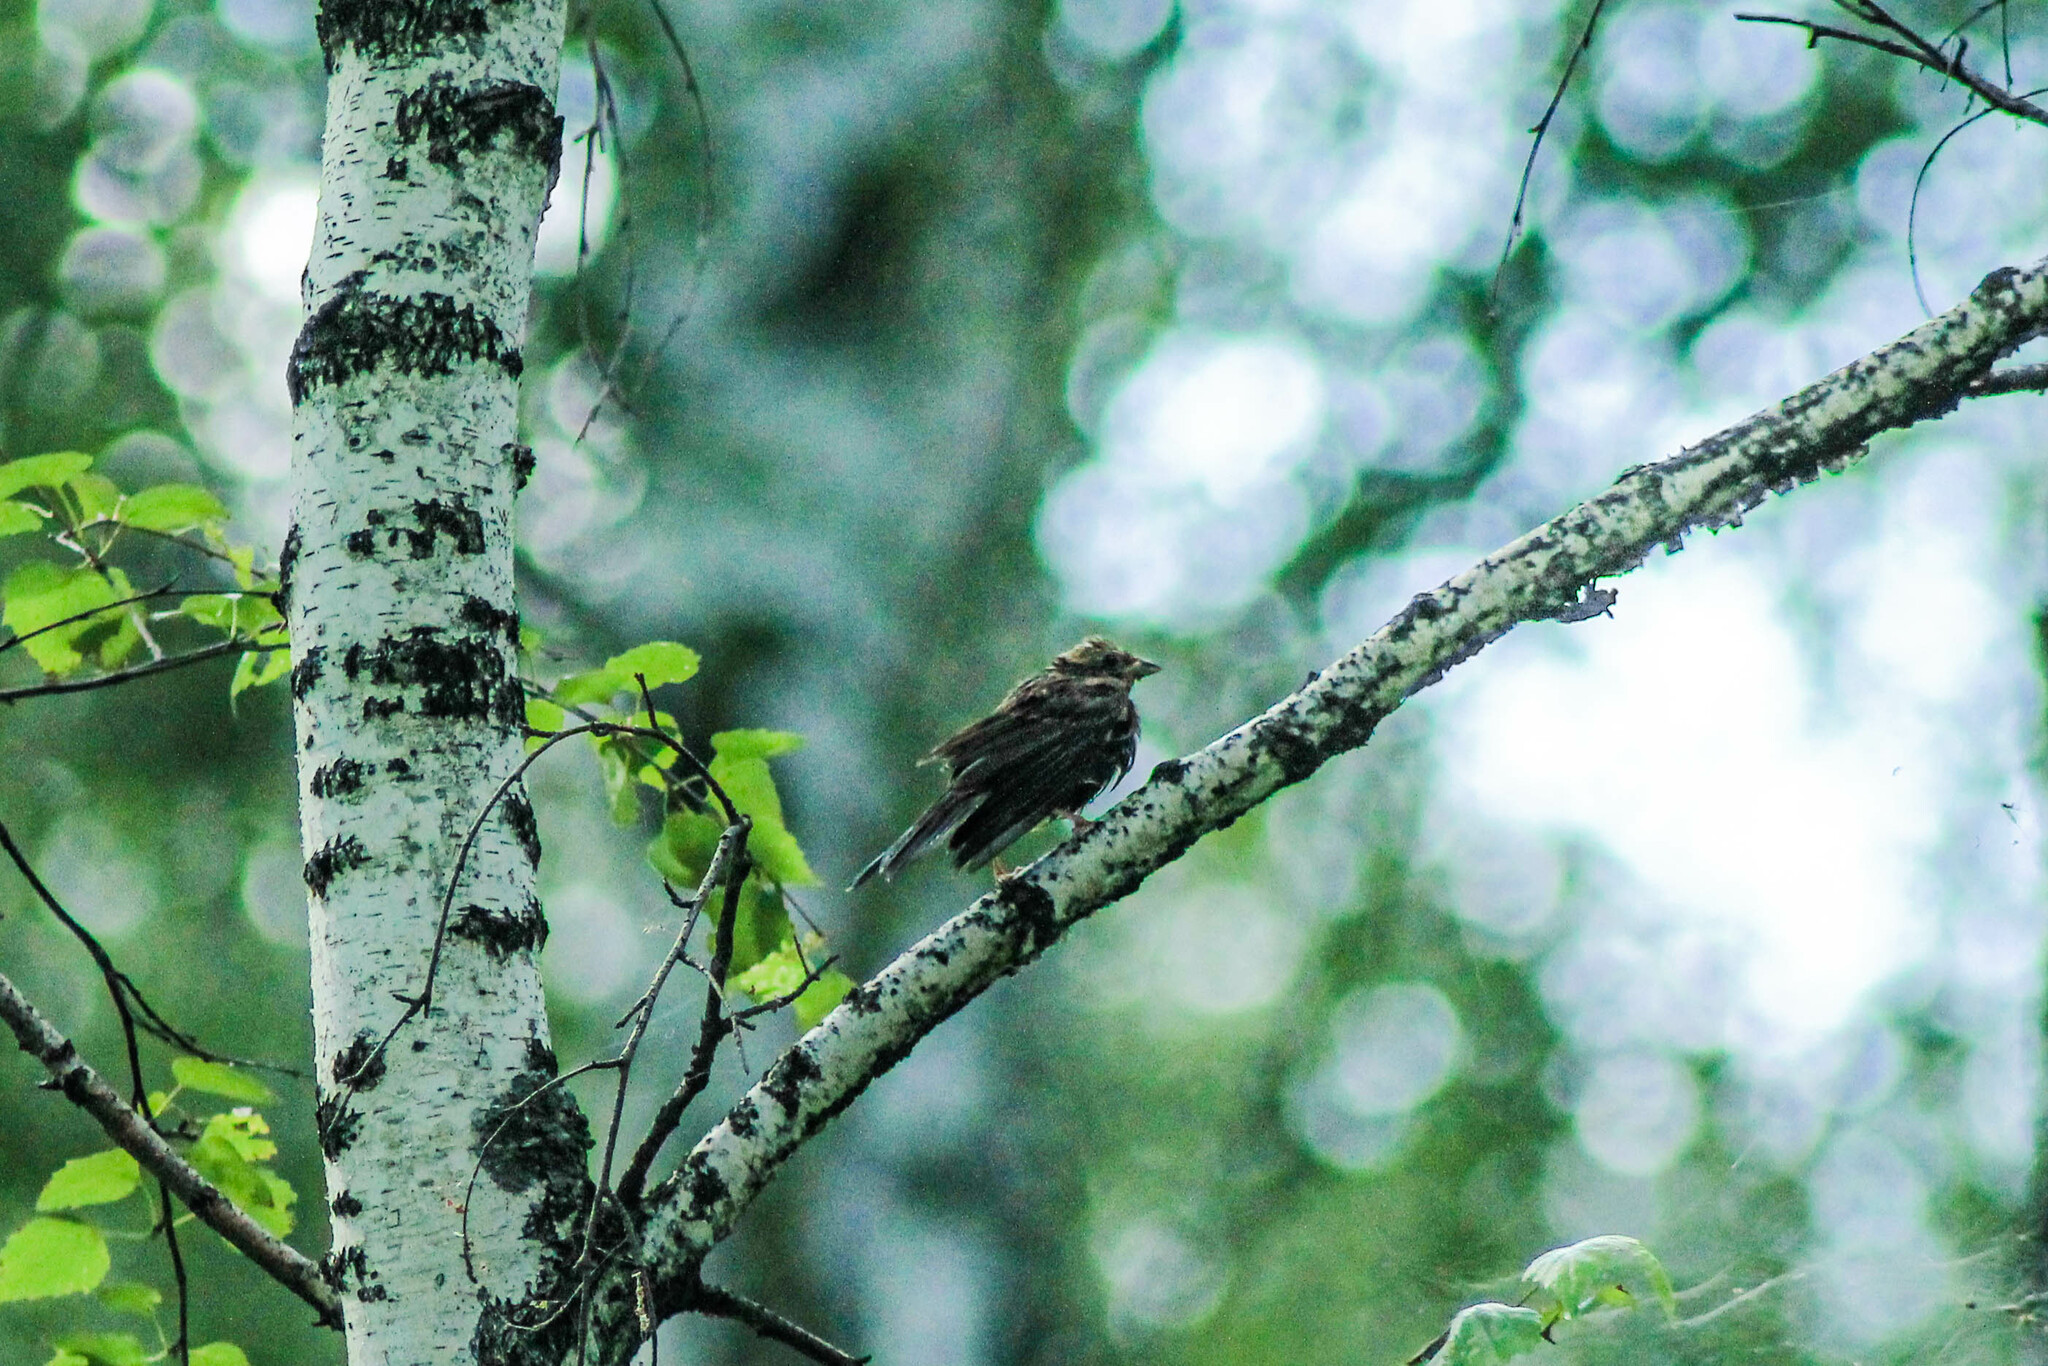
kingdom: Animalia
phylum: Chordata
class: Aves
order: Passeriformes
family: Emberizidae
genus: Emberiza
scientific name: Emberiza citrinella
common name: Yellowhammer
